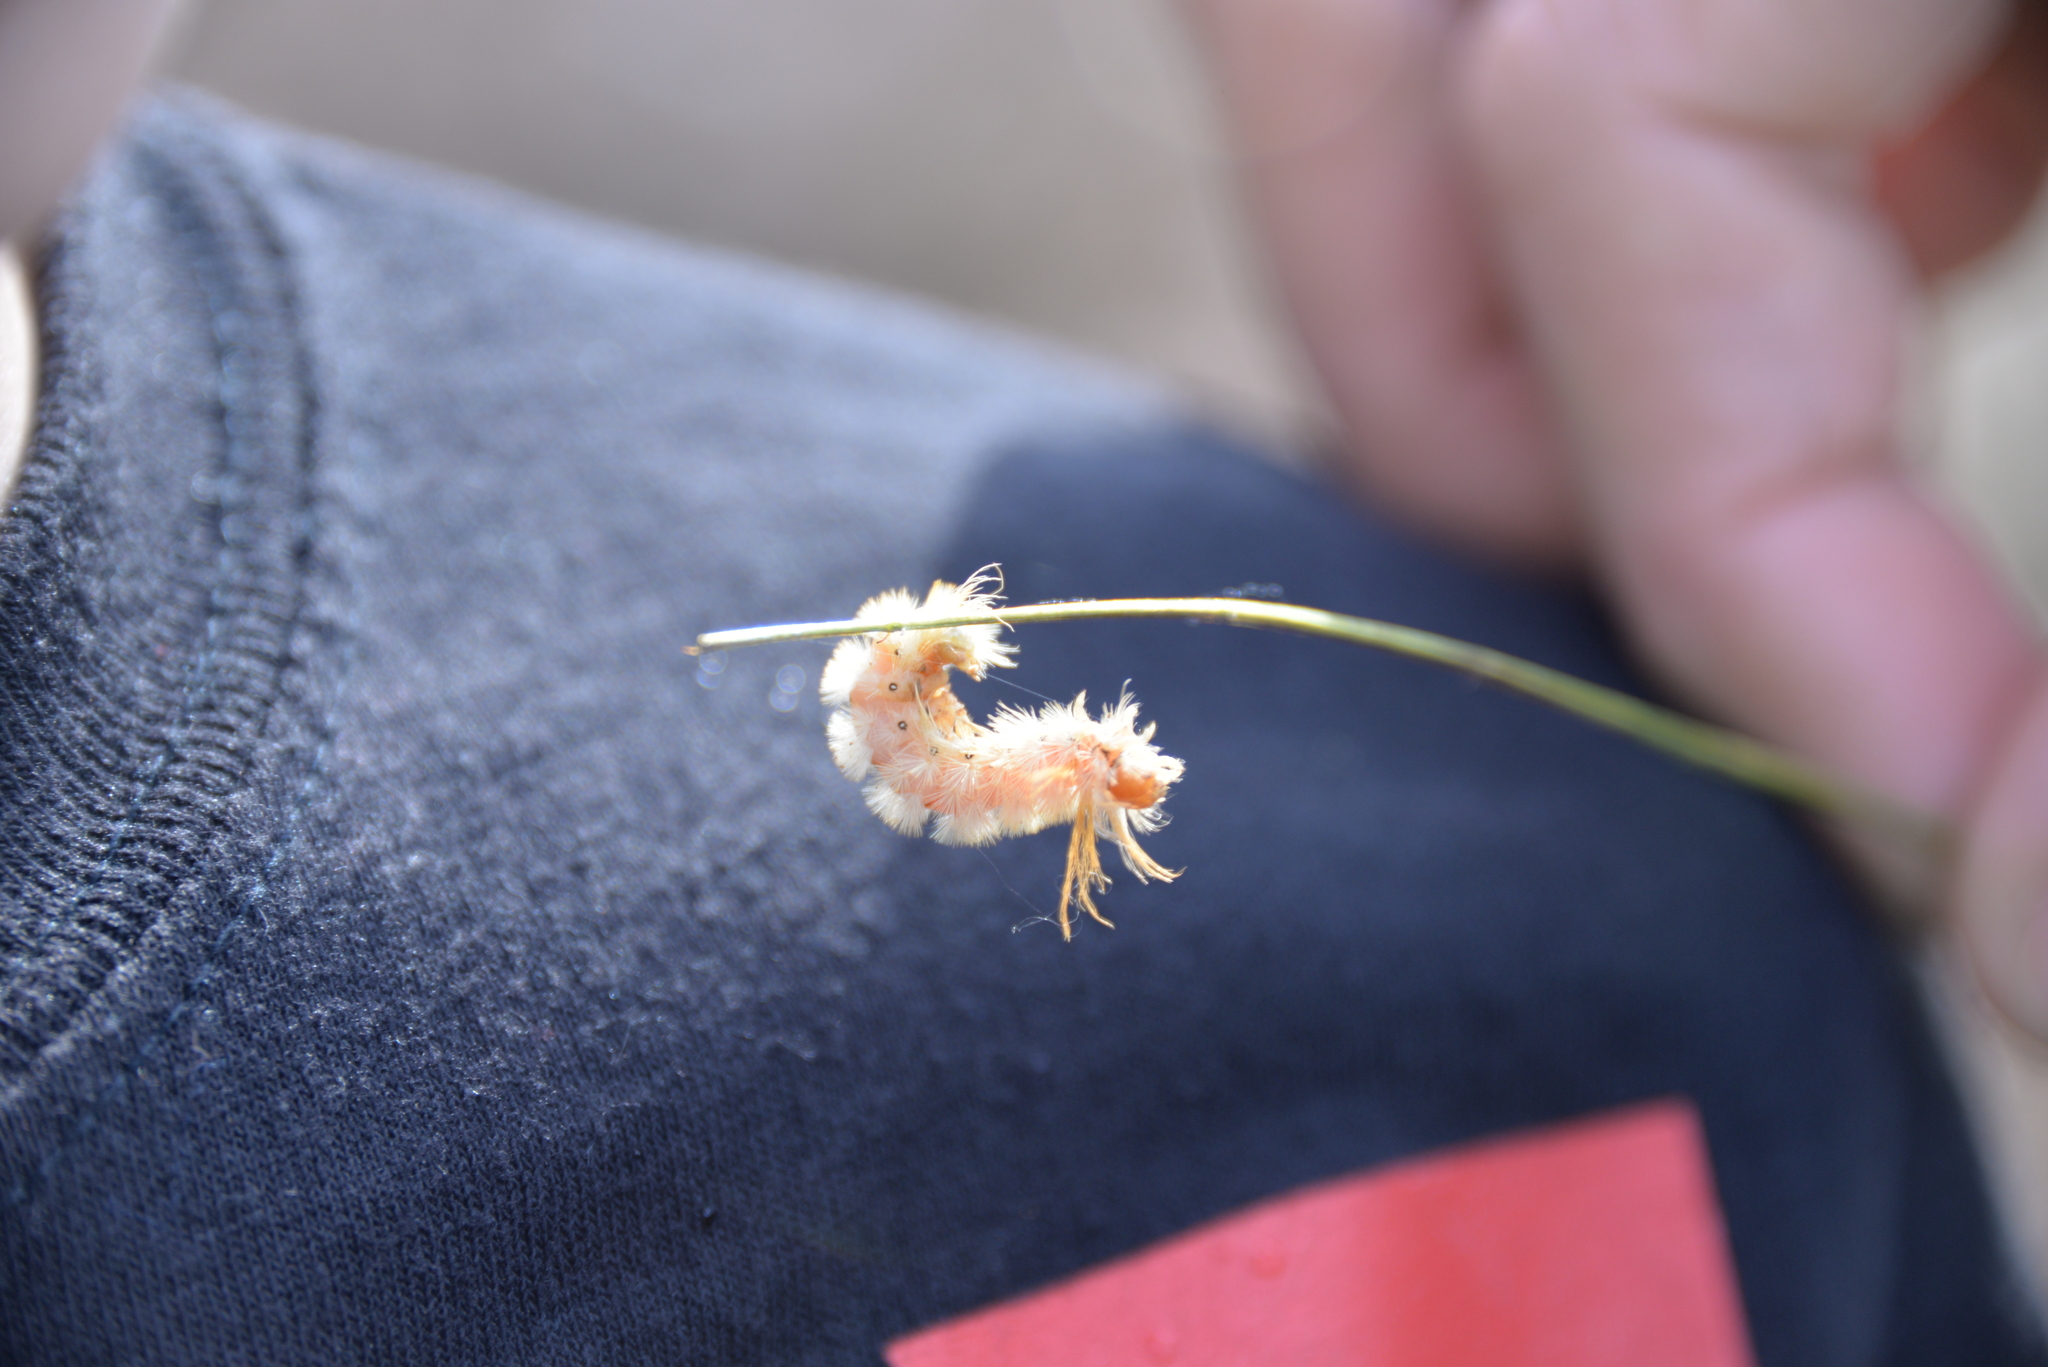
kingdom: Animalia
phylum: Arthropoda
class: Insecta
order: Lepidoptera
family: Erebidae
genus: Halysidota
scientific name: Halysidota harrisii
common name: Sycamore tussock moth
